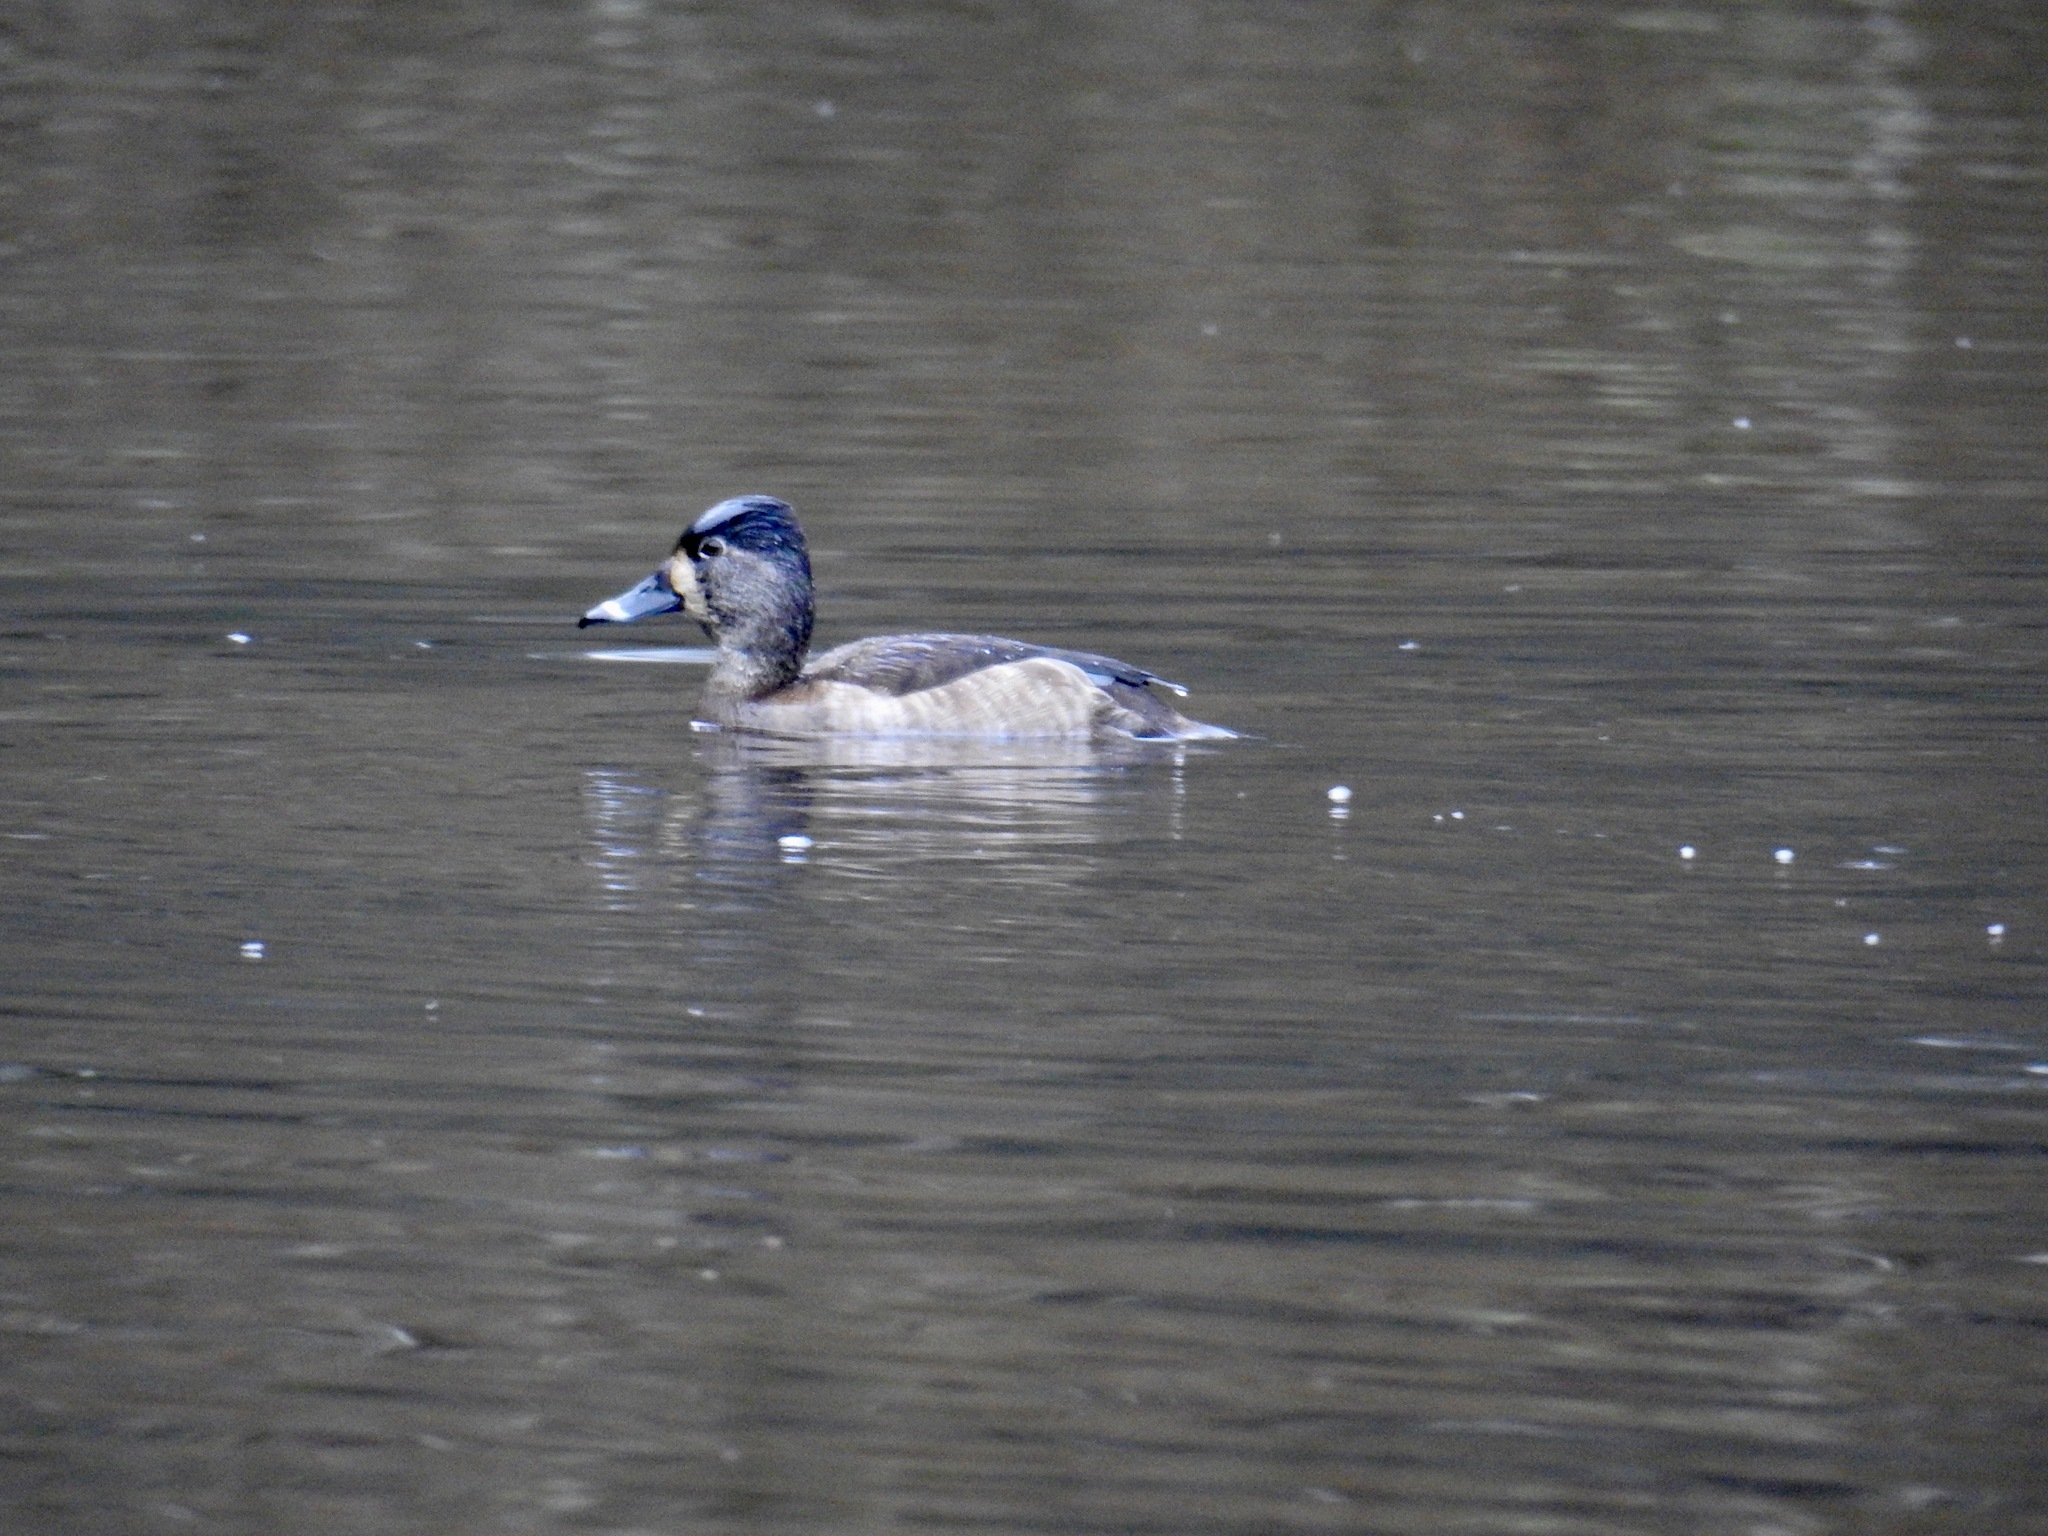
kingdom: Animalia
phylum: Chordata
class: Aves
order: Anseriformes
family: Anatidae
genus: Aythya
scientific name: Aythya collaris
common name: Ring-necked duck
